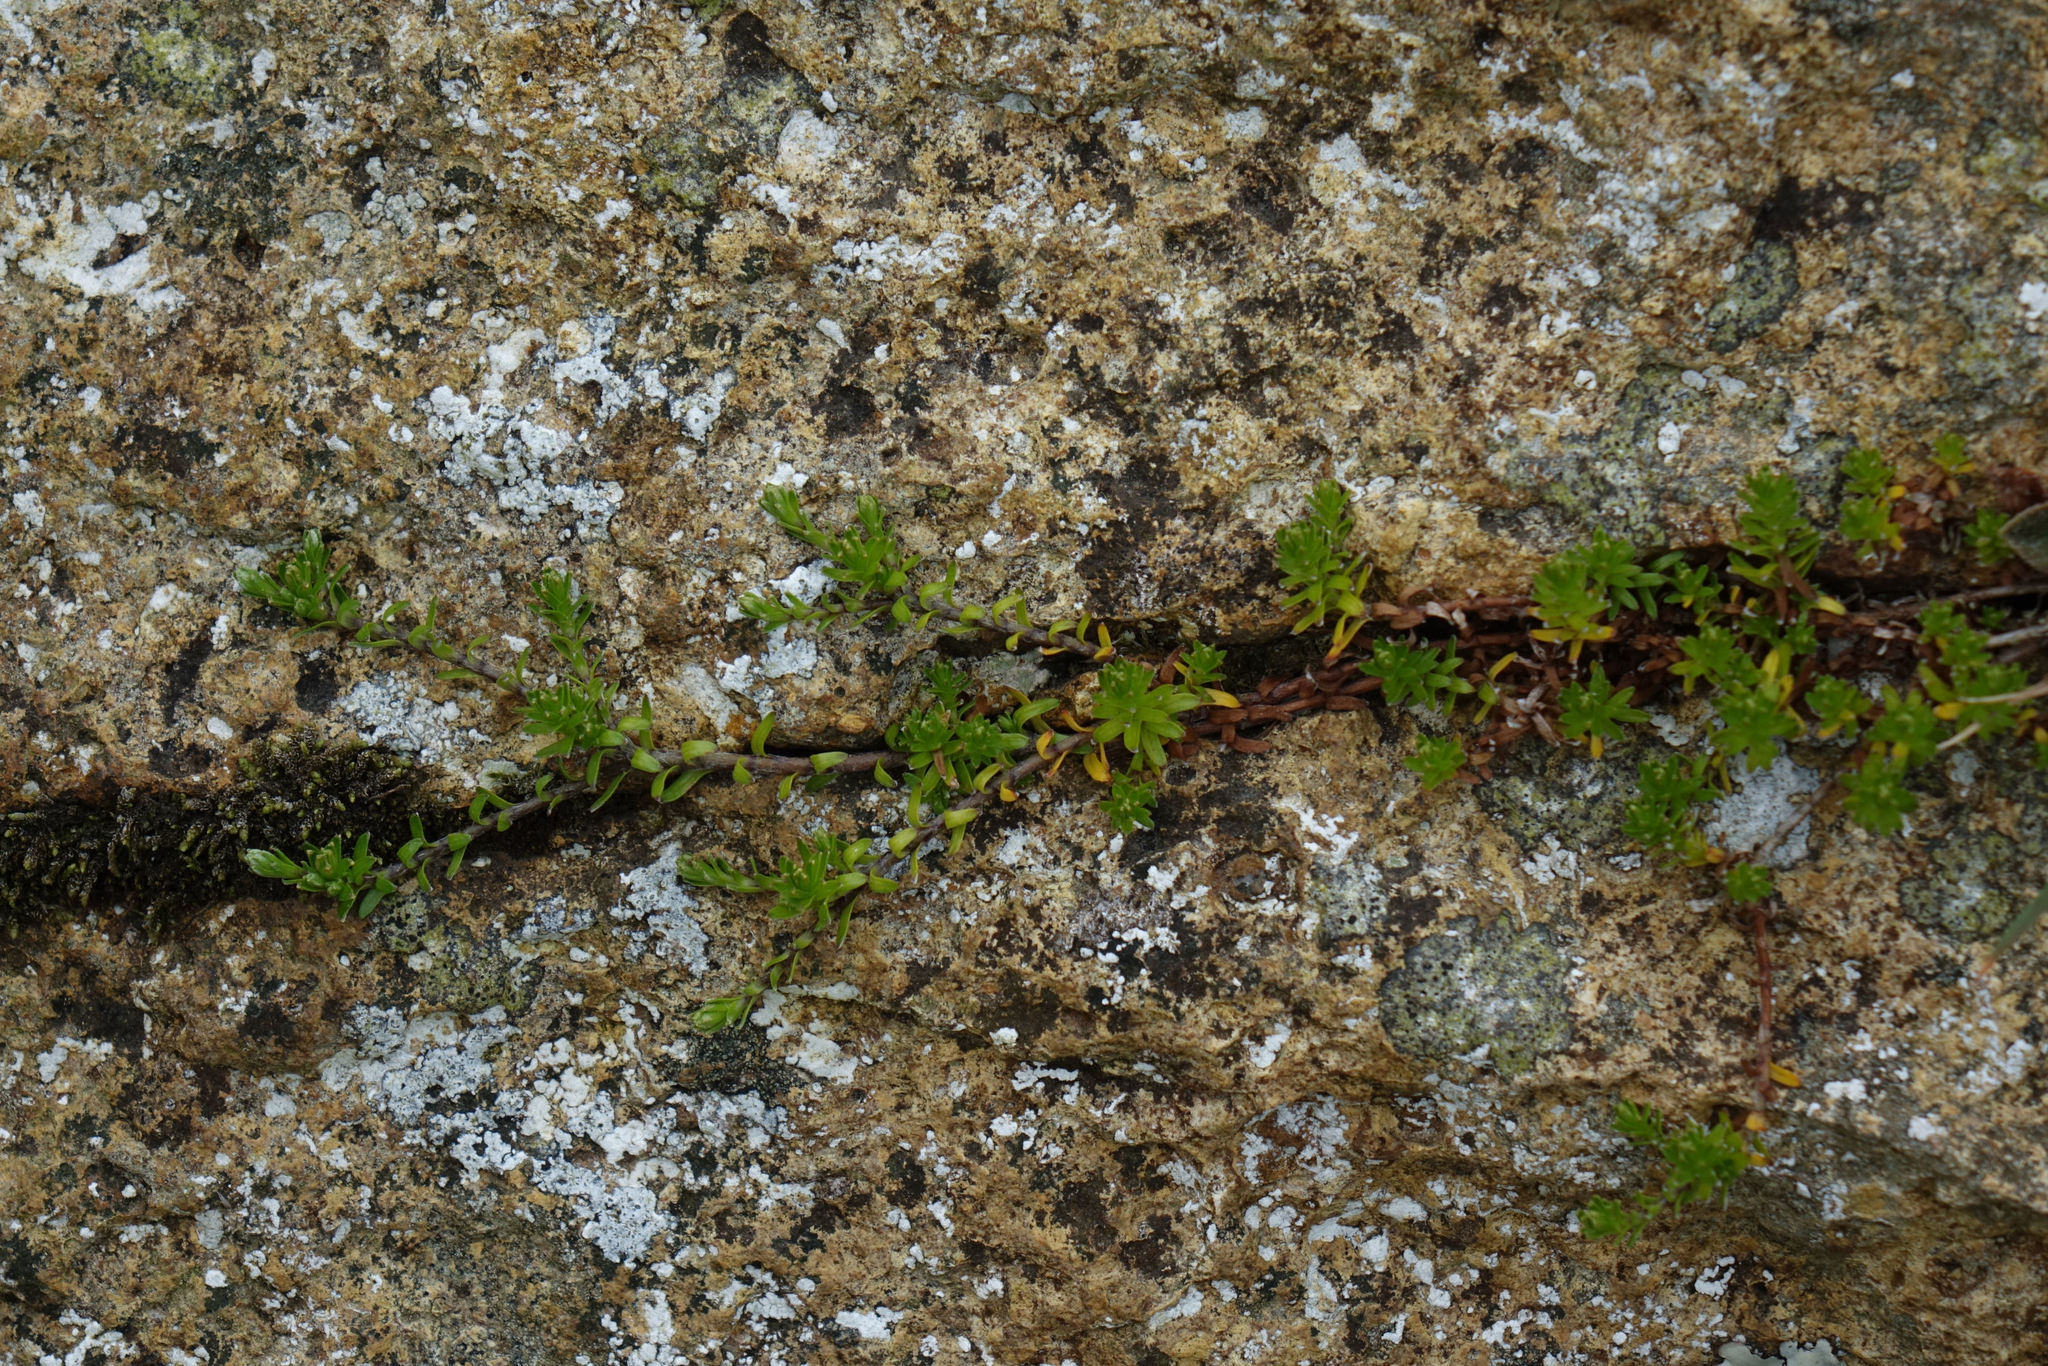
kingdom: Plantae
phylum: Tracheophyta
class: Magnoliopsida
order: Asterales
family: Asteraceae
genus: Raoulia
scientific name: Raoulia glabra
